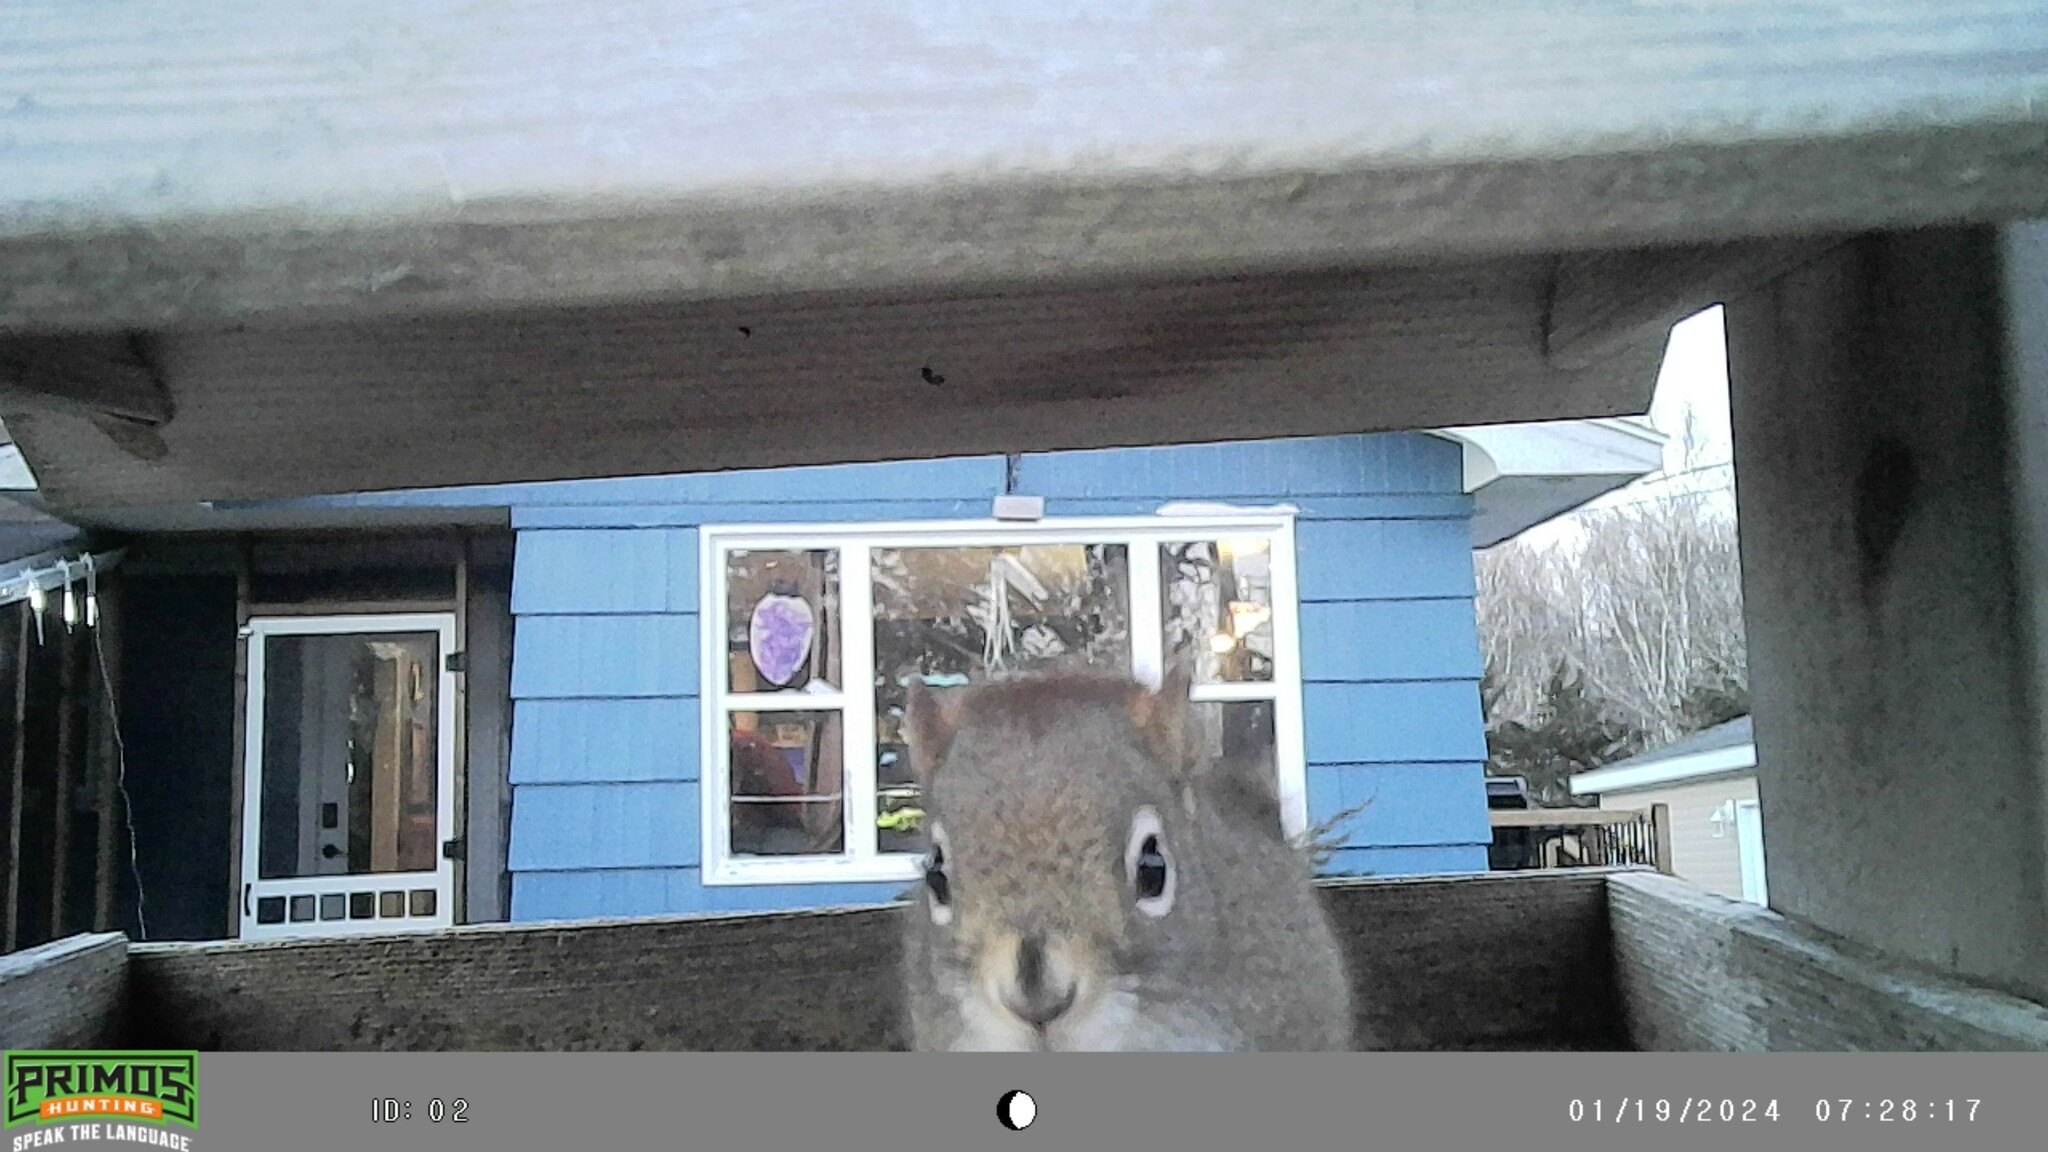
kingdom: Animalia
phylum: Chordata
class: Mammalia
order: Rodentia
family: Sciuridae
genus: Tamiasciurus
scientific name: Tamiasciurus hudsonicus
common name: Red squirrel
